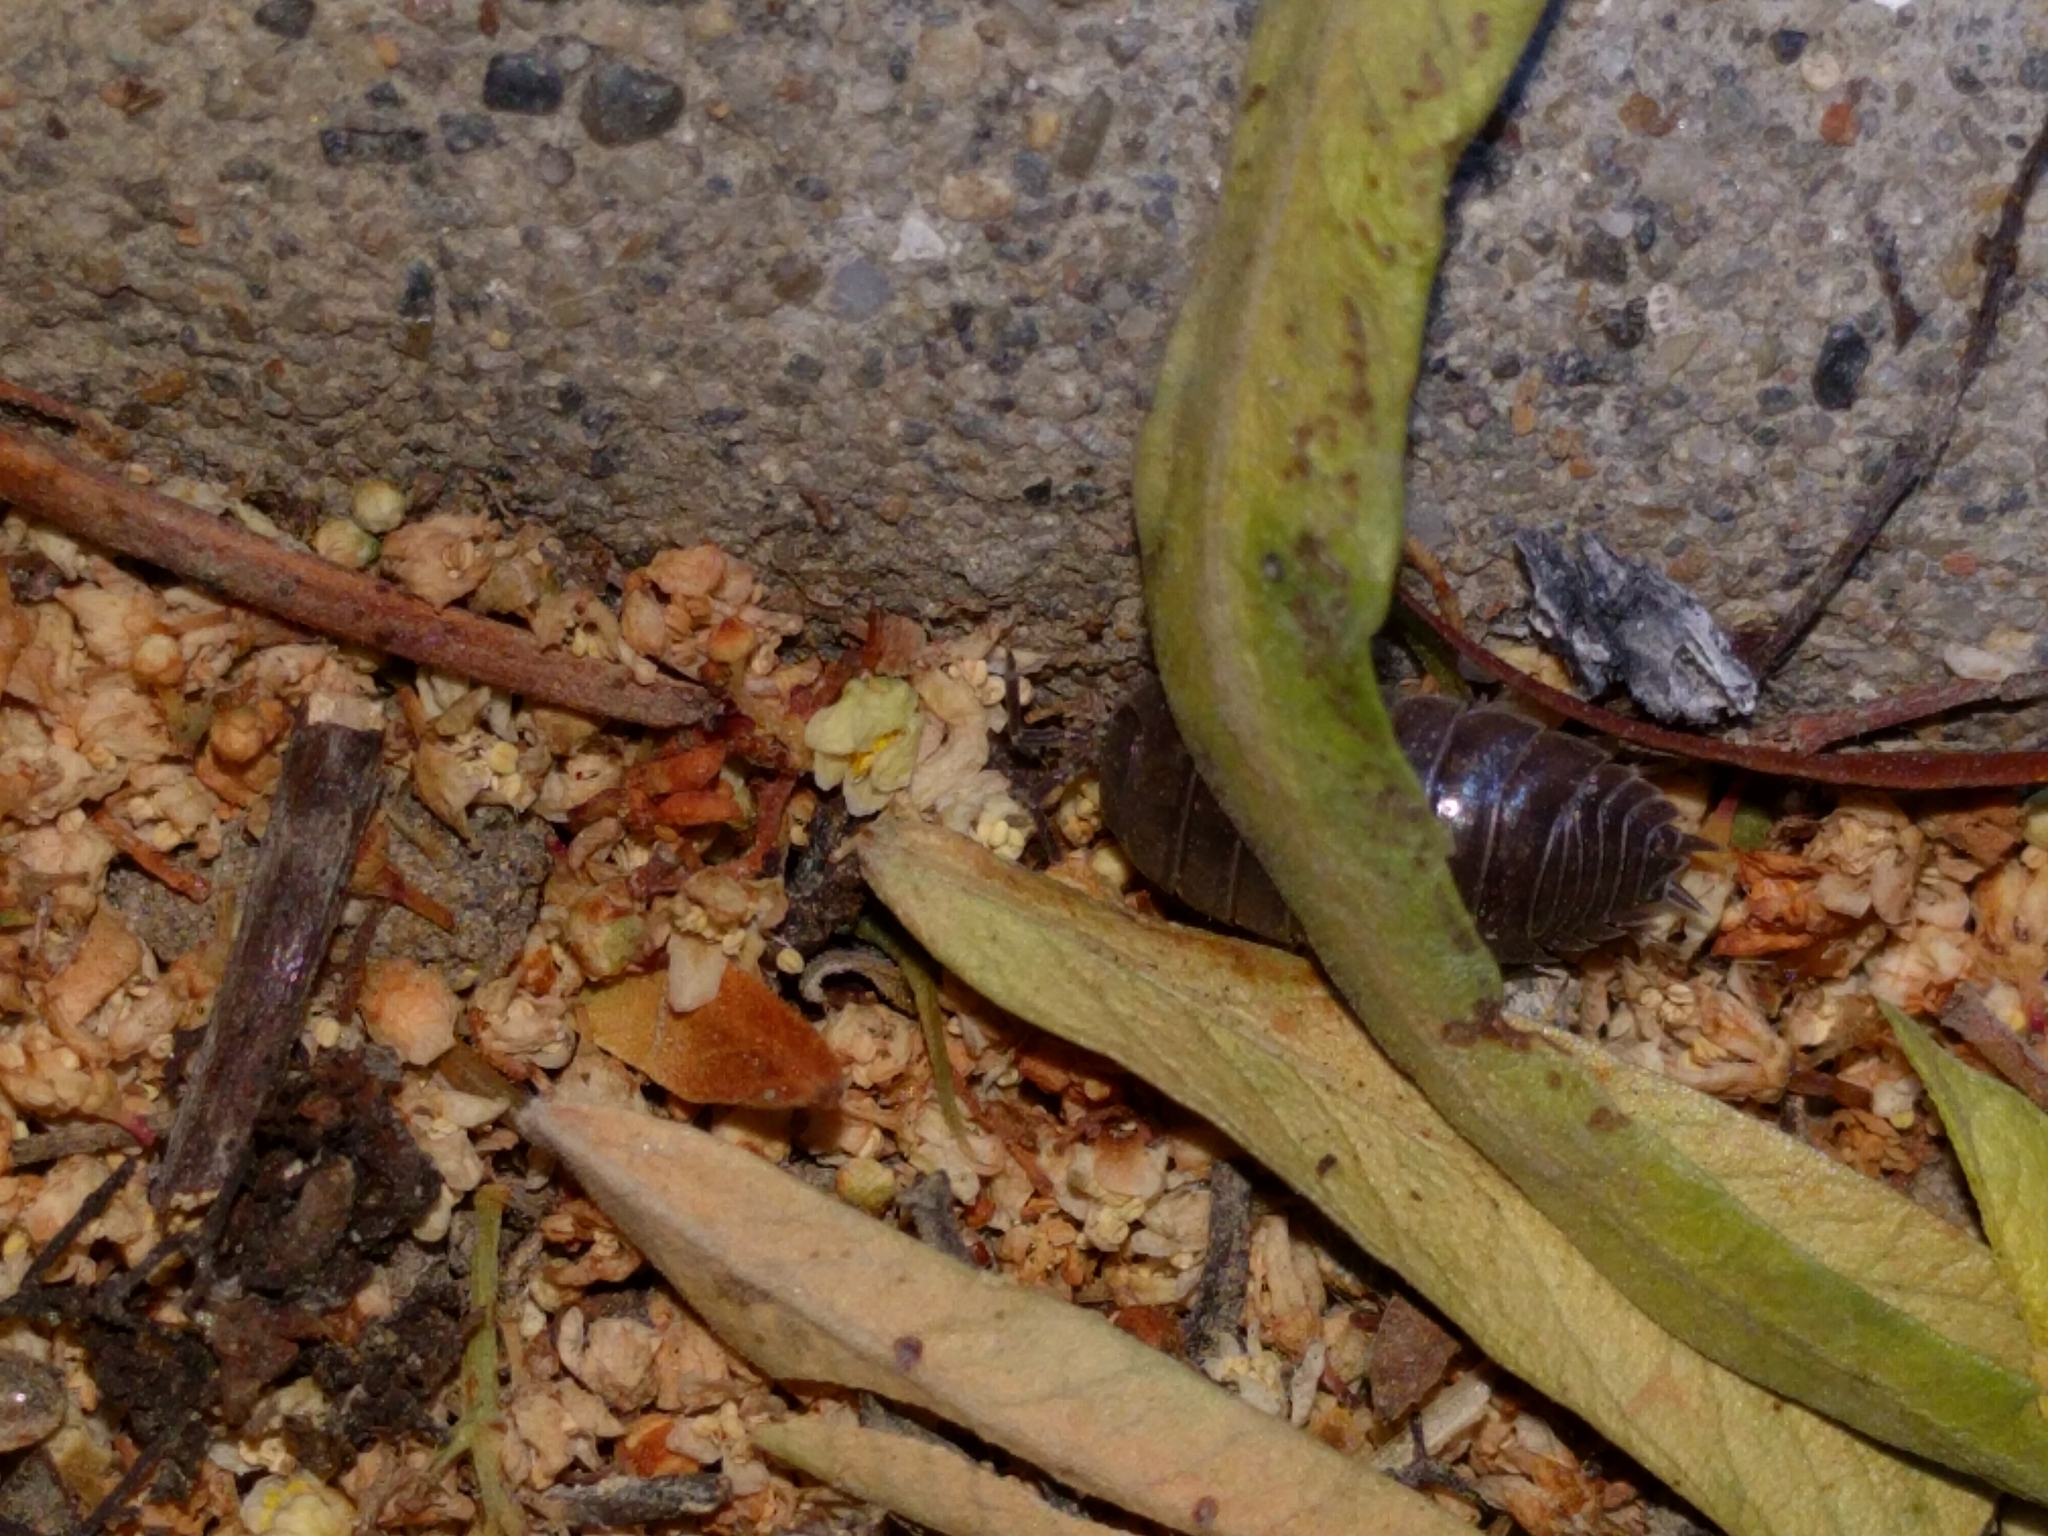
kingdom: Animalia
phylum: Arthropoda
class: Malacostraca
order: Isopoda
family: Porcellionidae
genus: Porcellio
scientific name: Porcellio laevis
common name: Swift woodlouse
